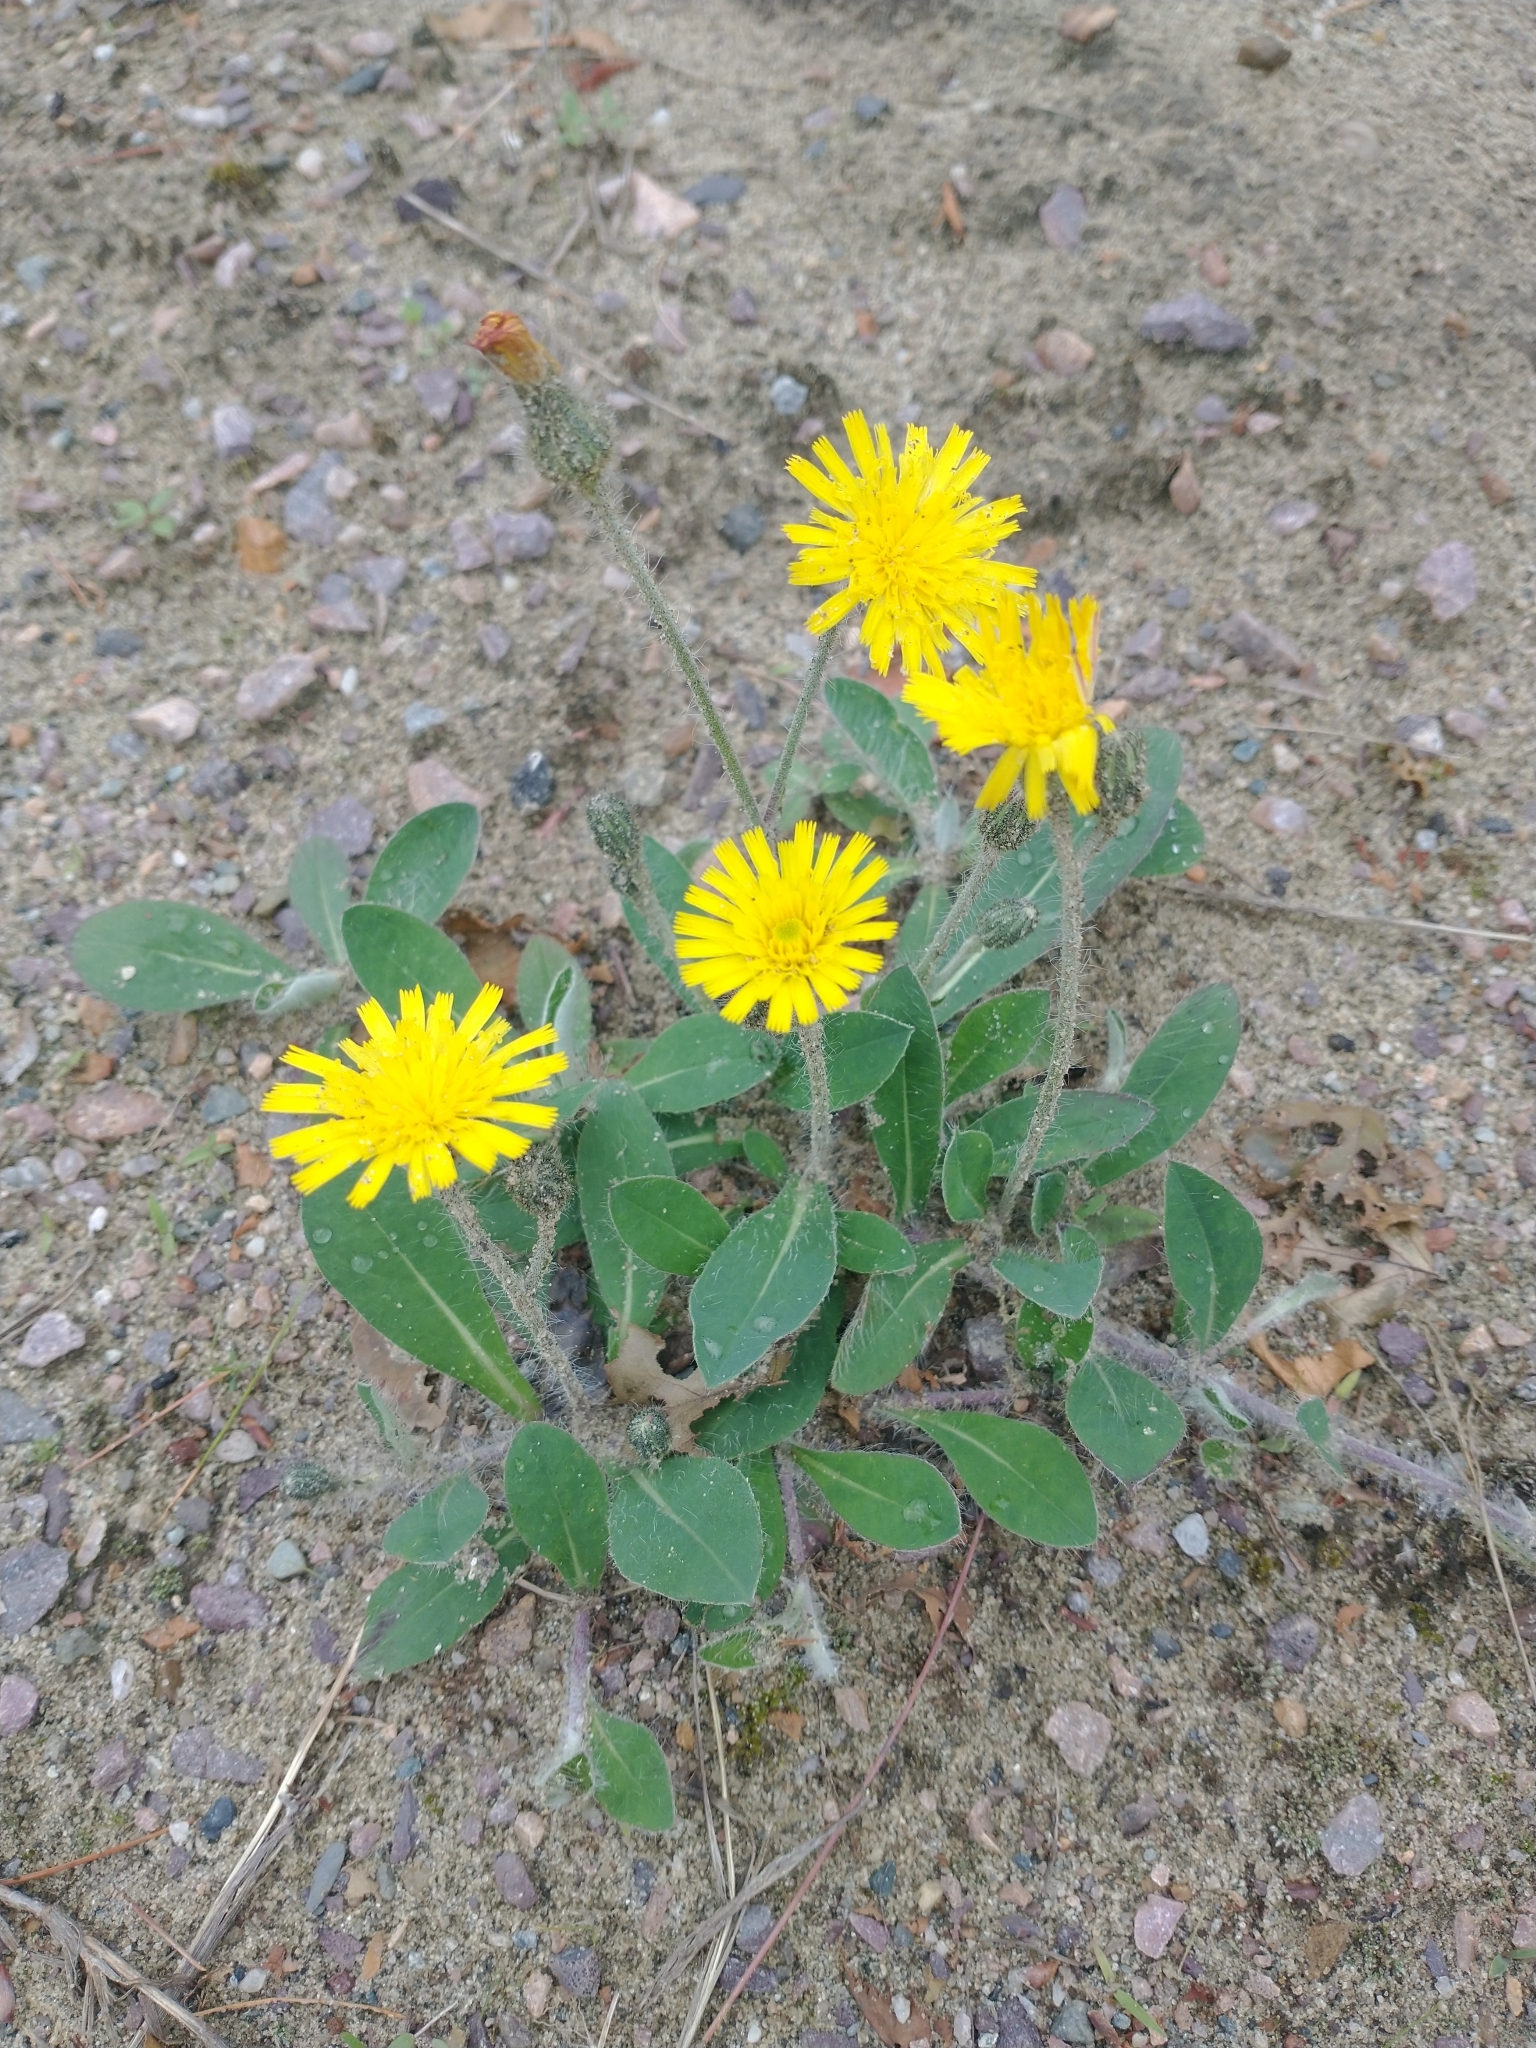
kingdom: Plantae
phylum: Tracheophyta
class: Magnoliopsida
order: Asterales
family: Asteraceae
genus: Pilosella
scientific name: Pilosella officinarum
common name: Mouse-ear hawkweed
